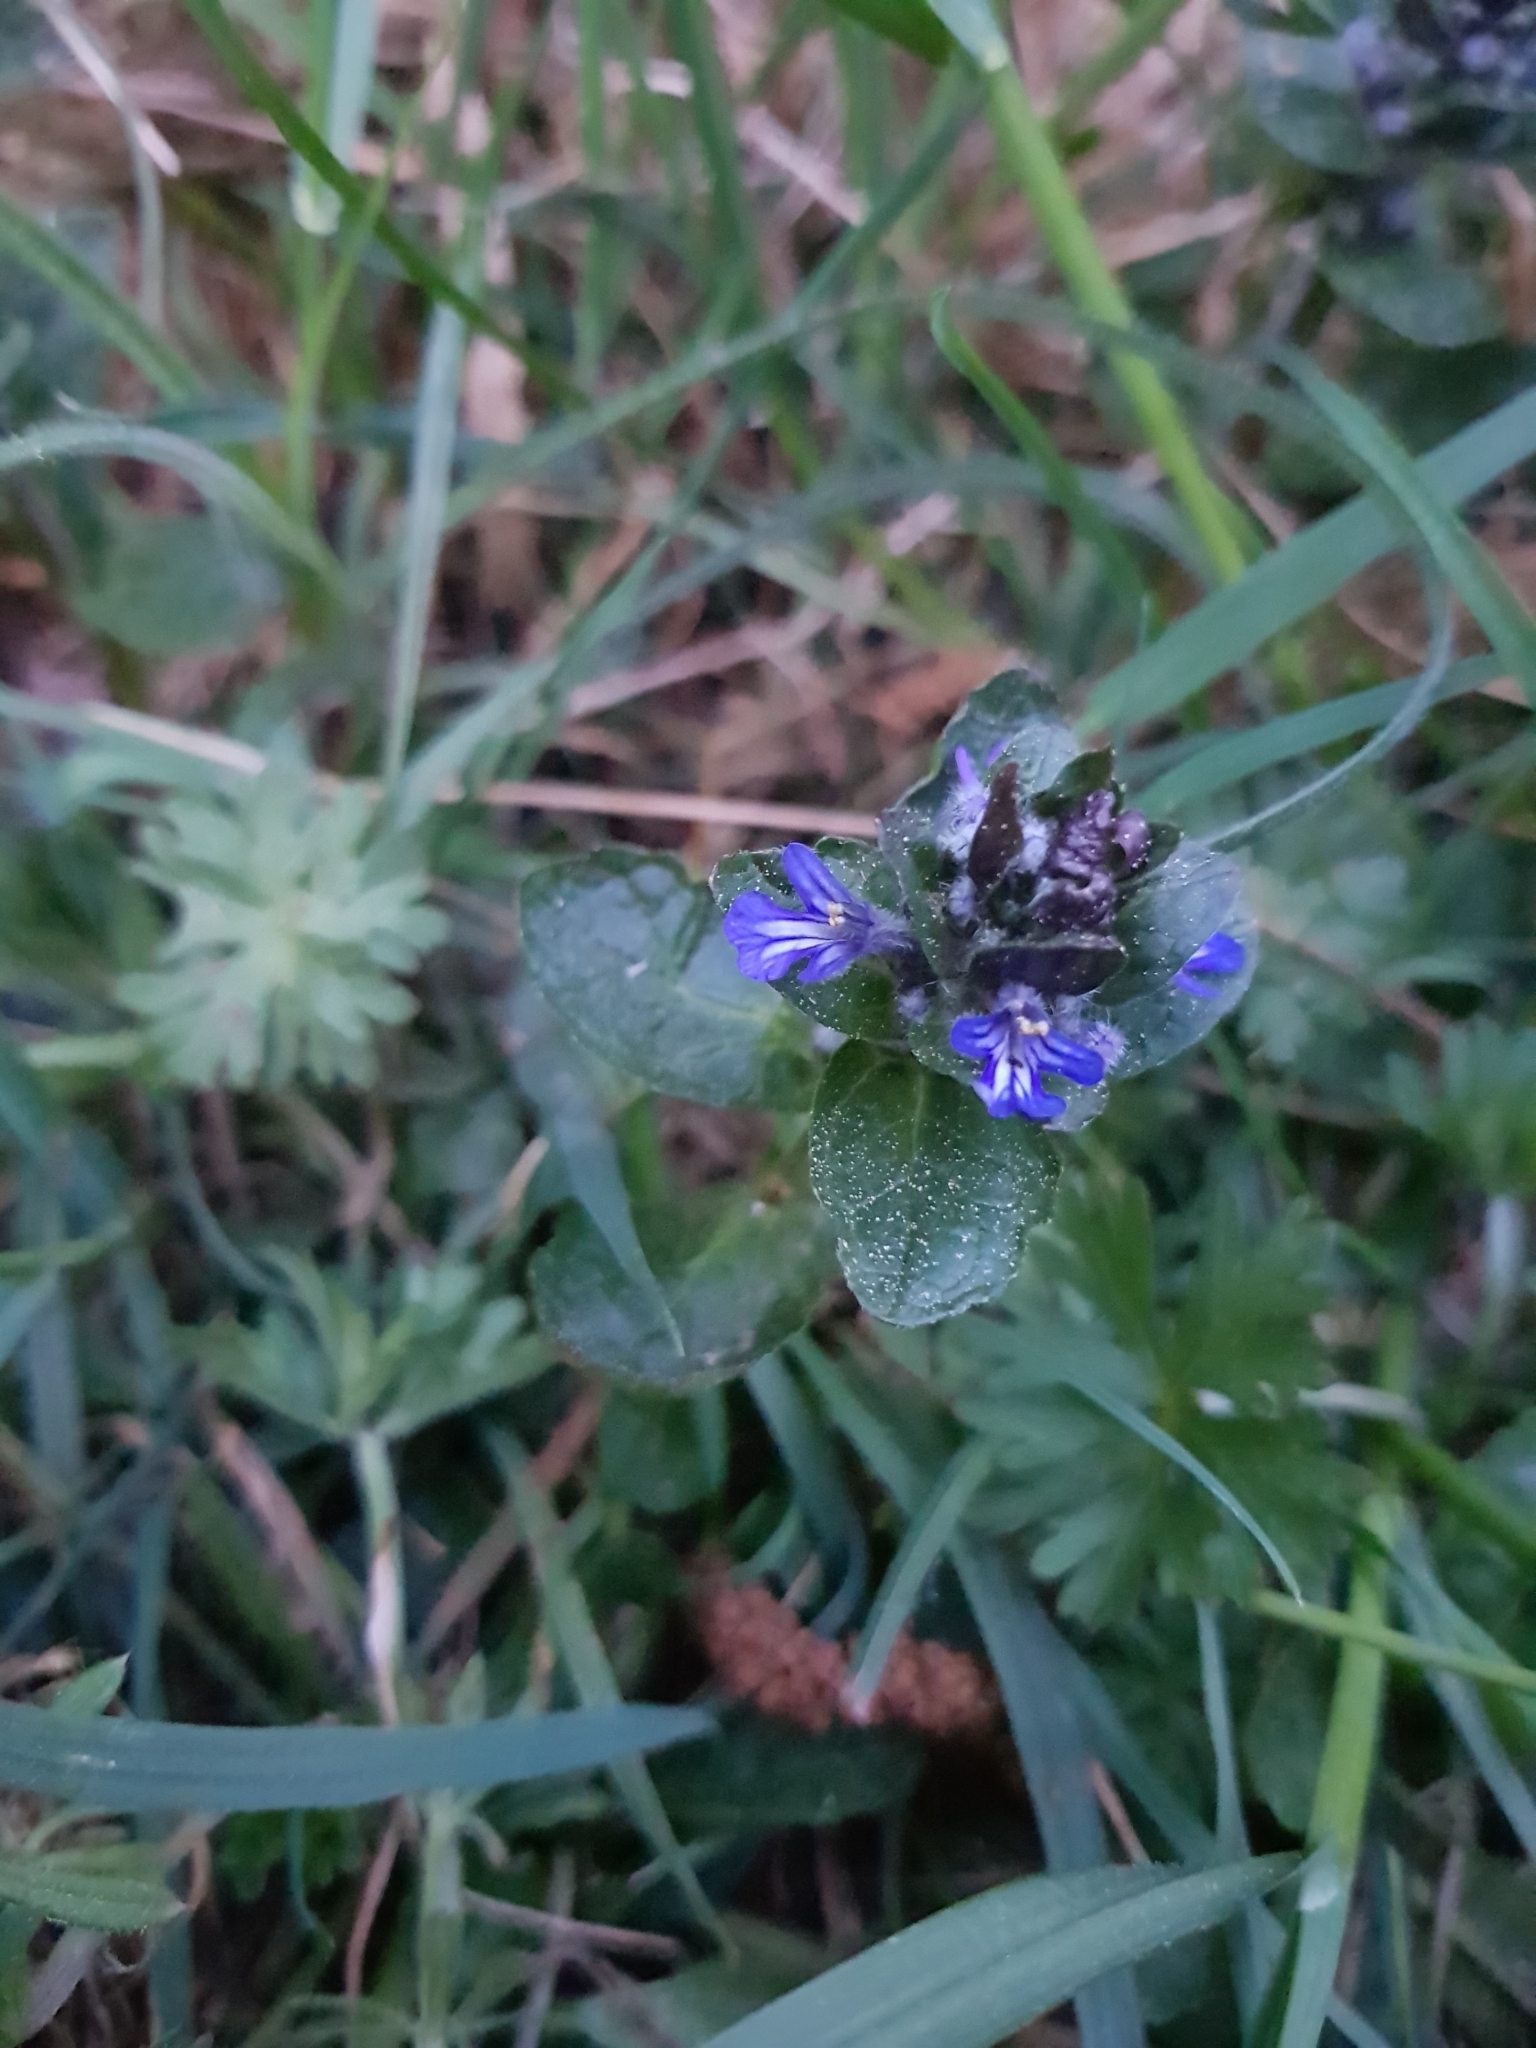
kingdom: Plantae
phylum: Tracheophyta
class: Magnoliopsida
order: Lamiales
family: Lamiaceae
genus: Ajuga
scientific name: Ajuga reptans
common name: Bugle
